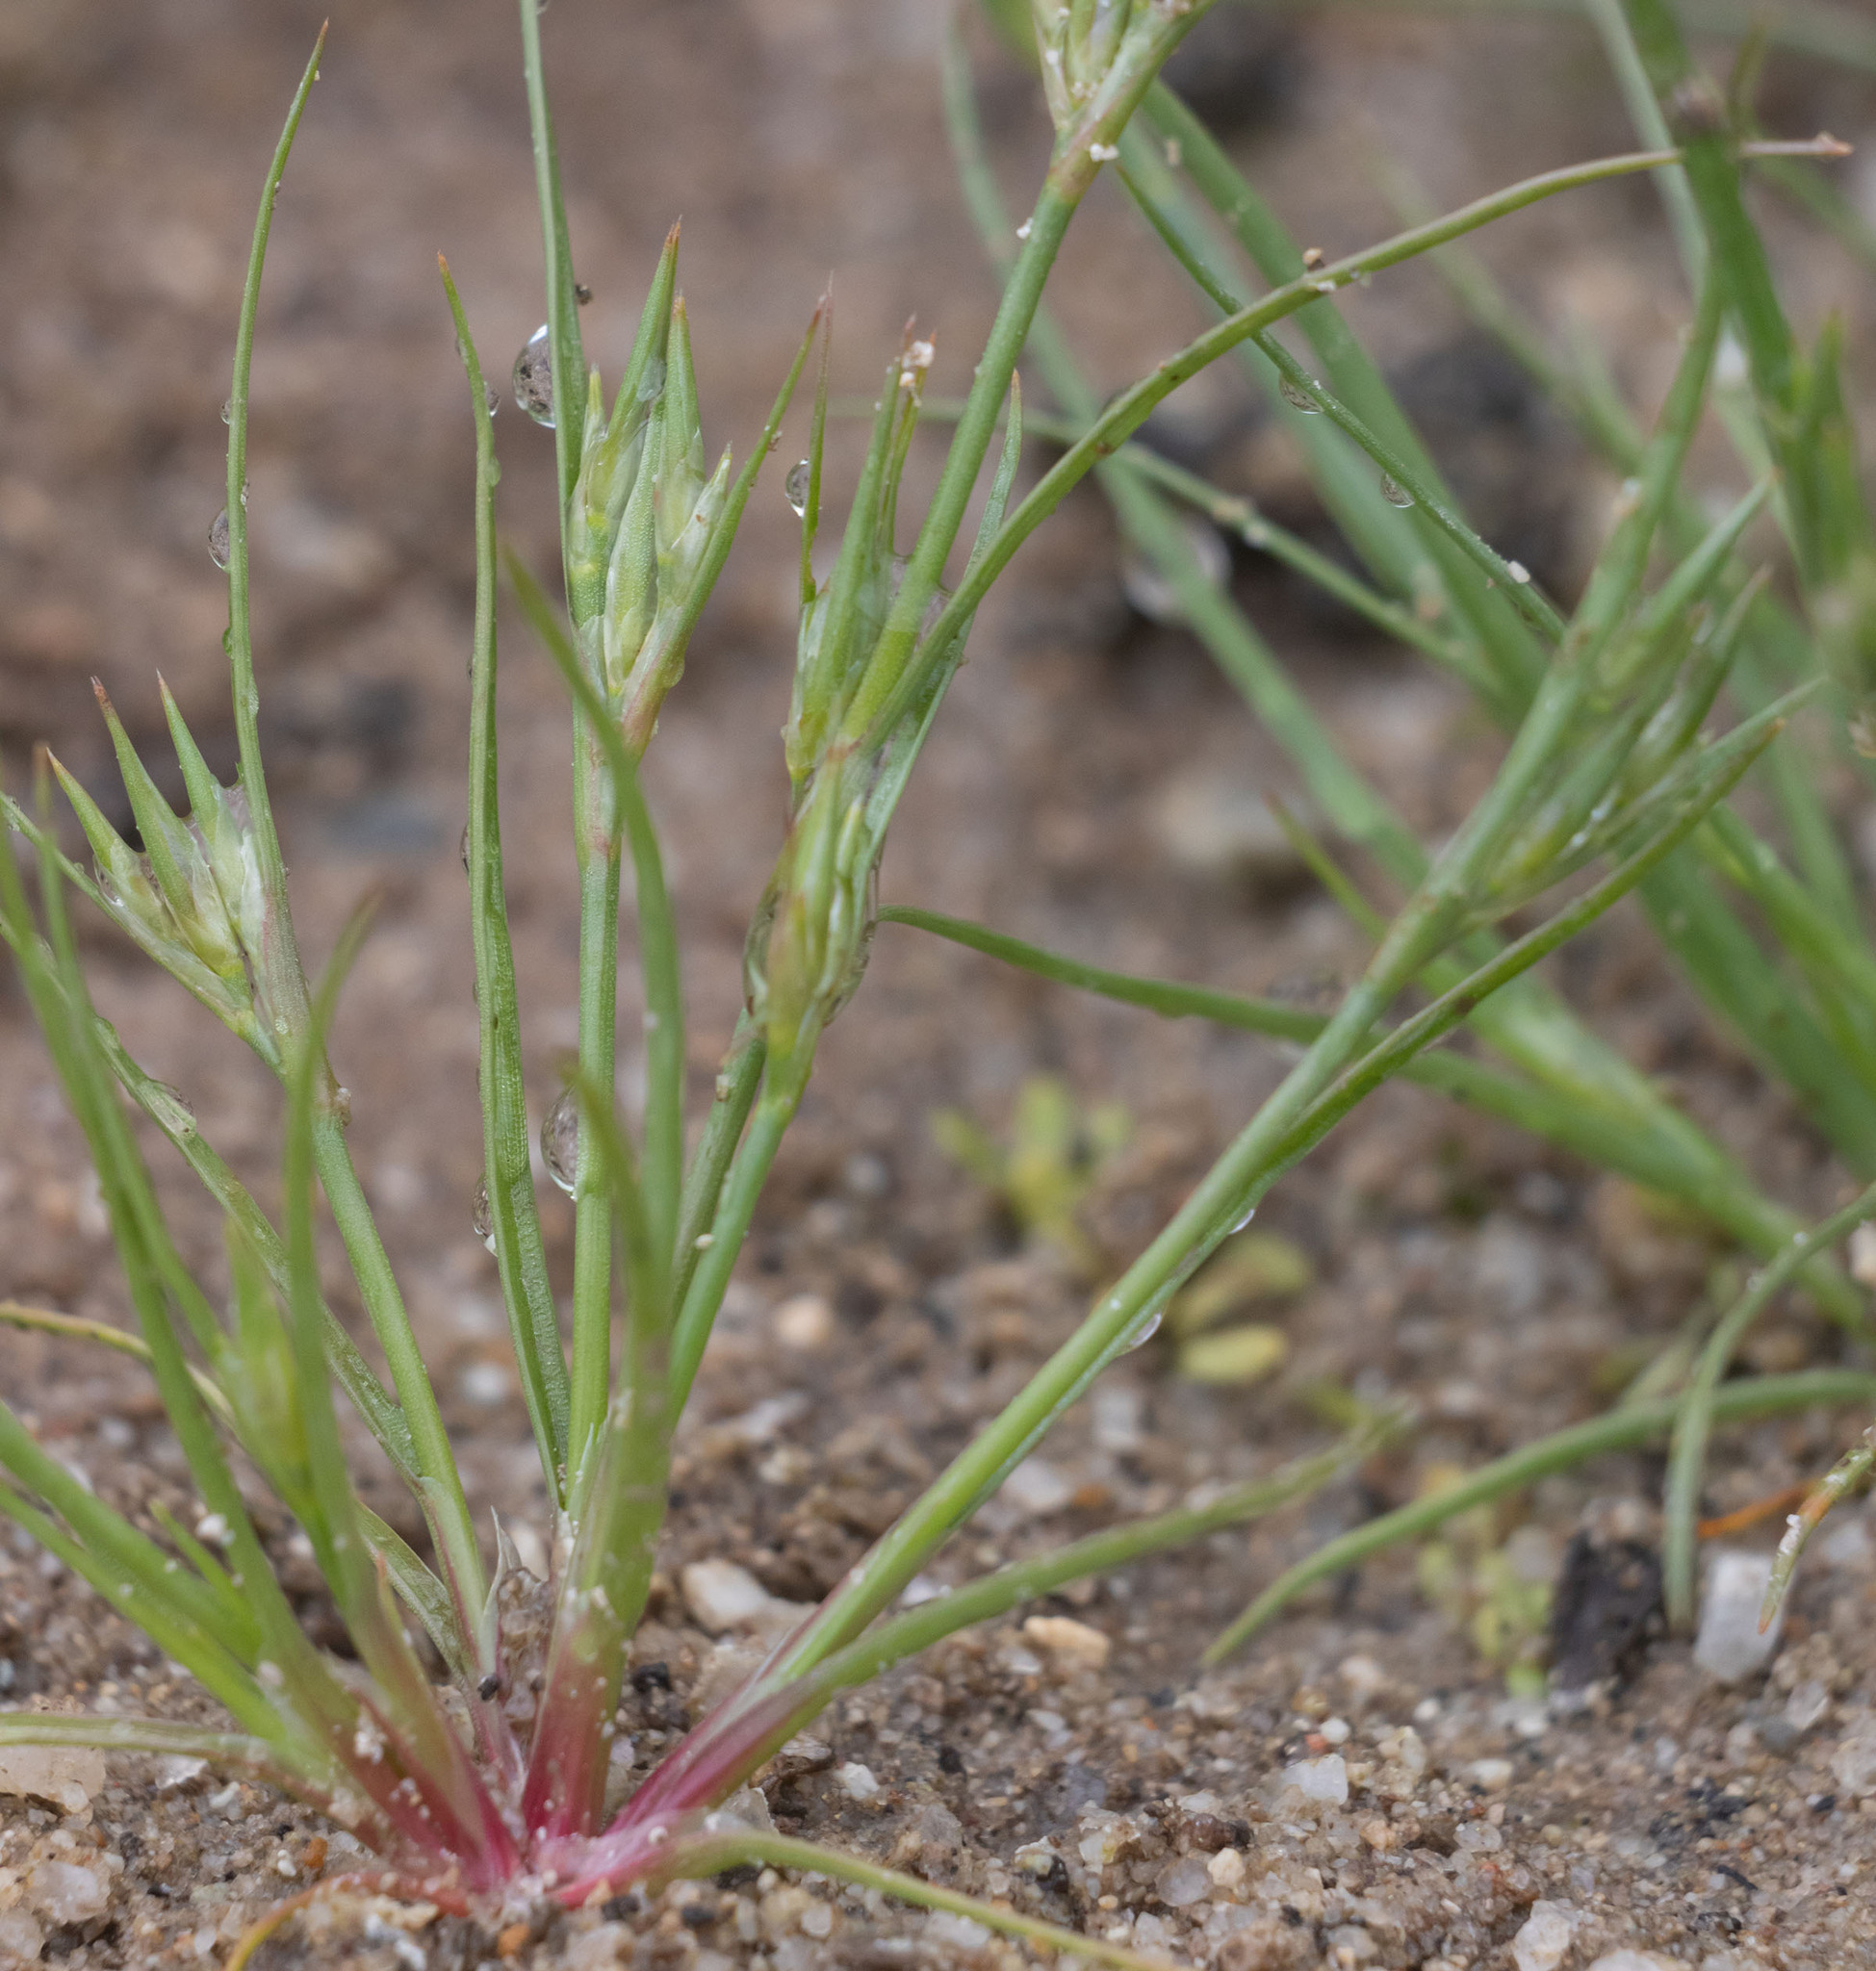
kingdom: Plantae
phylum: Tracheophyta
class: Liliopsida
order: Poales
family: Juncaceae
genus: Juncus
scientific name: Juncus bufonius
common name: Toad rush
